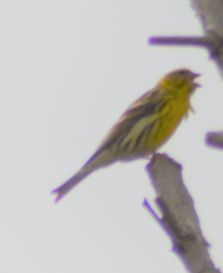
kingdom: Animalia
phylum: Chordata
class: Aves
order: Passeriformes
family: Fringillidae
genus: Serinus
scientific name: Serinus serinus
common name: European serin
